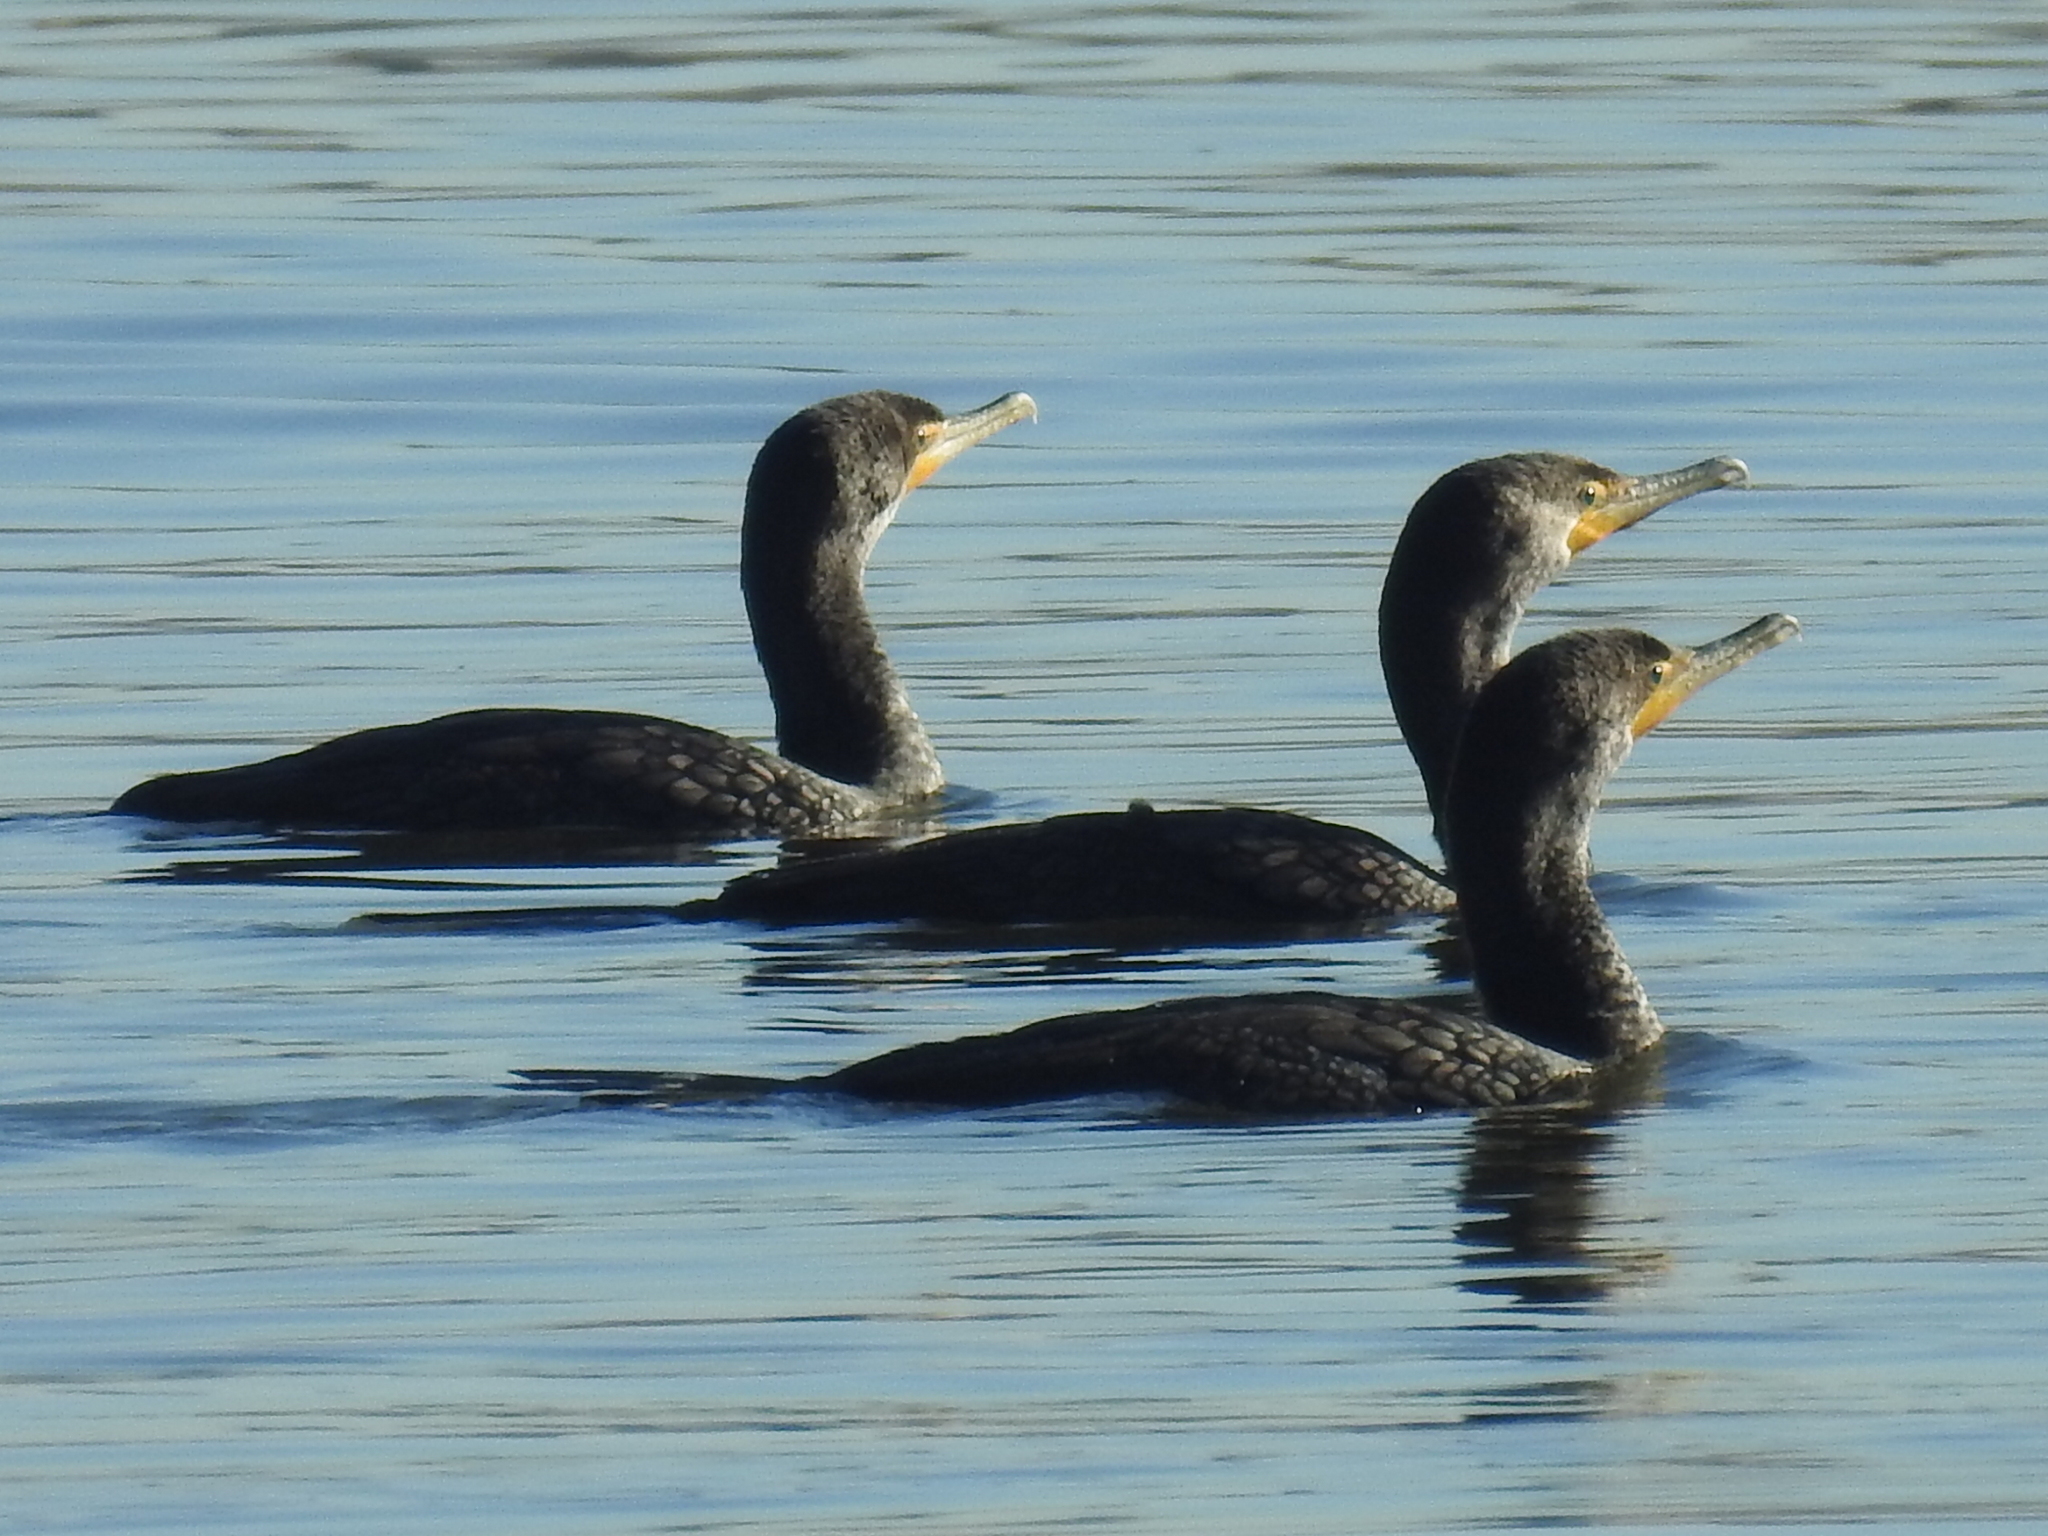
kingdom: Animalia
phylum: Chordata
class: Aves
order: Suliformes
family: Phalacrocoracidae
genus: Phalacrocorax
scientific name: Phalacrocorax auritus
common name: Double-crested cormorant
